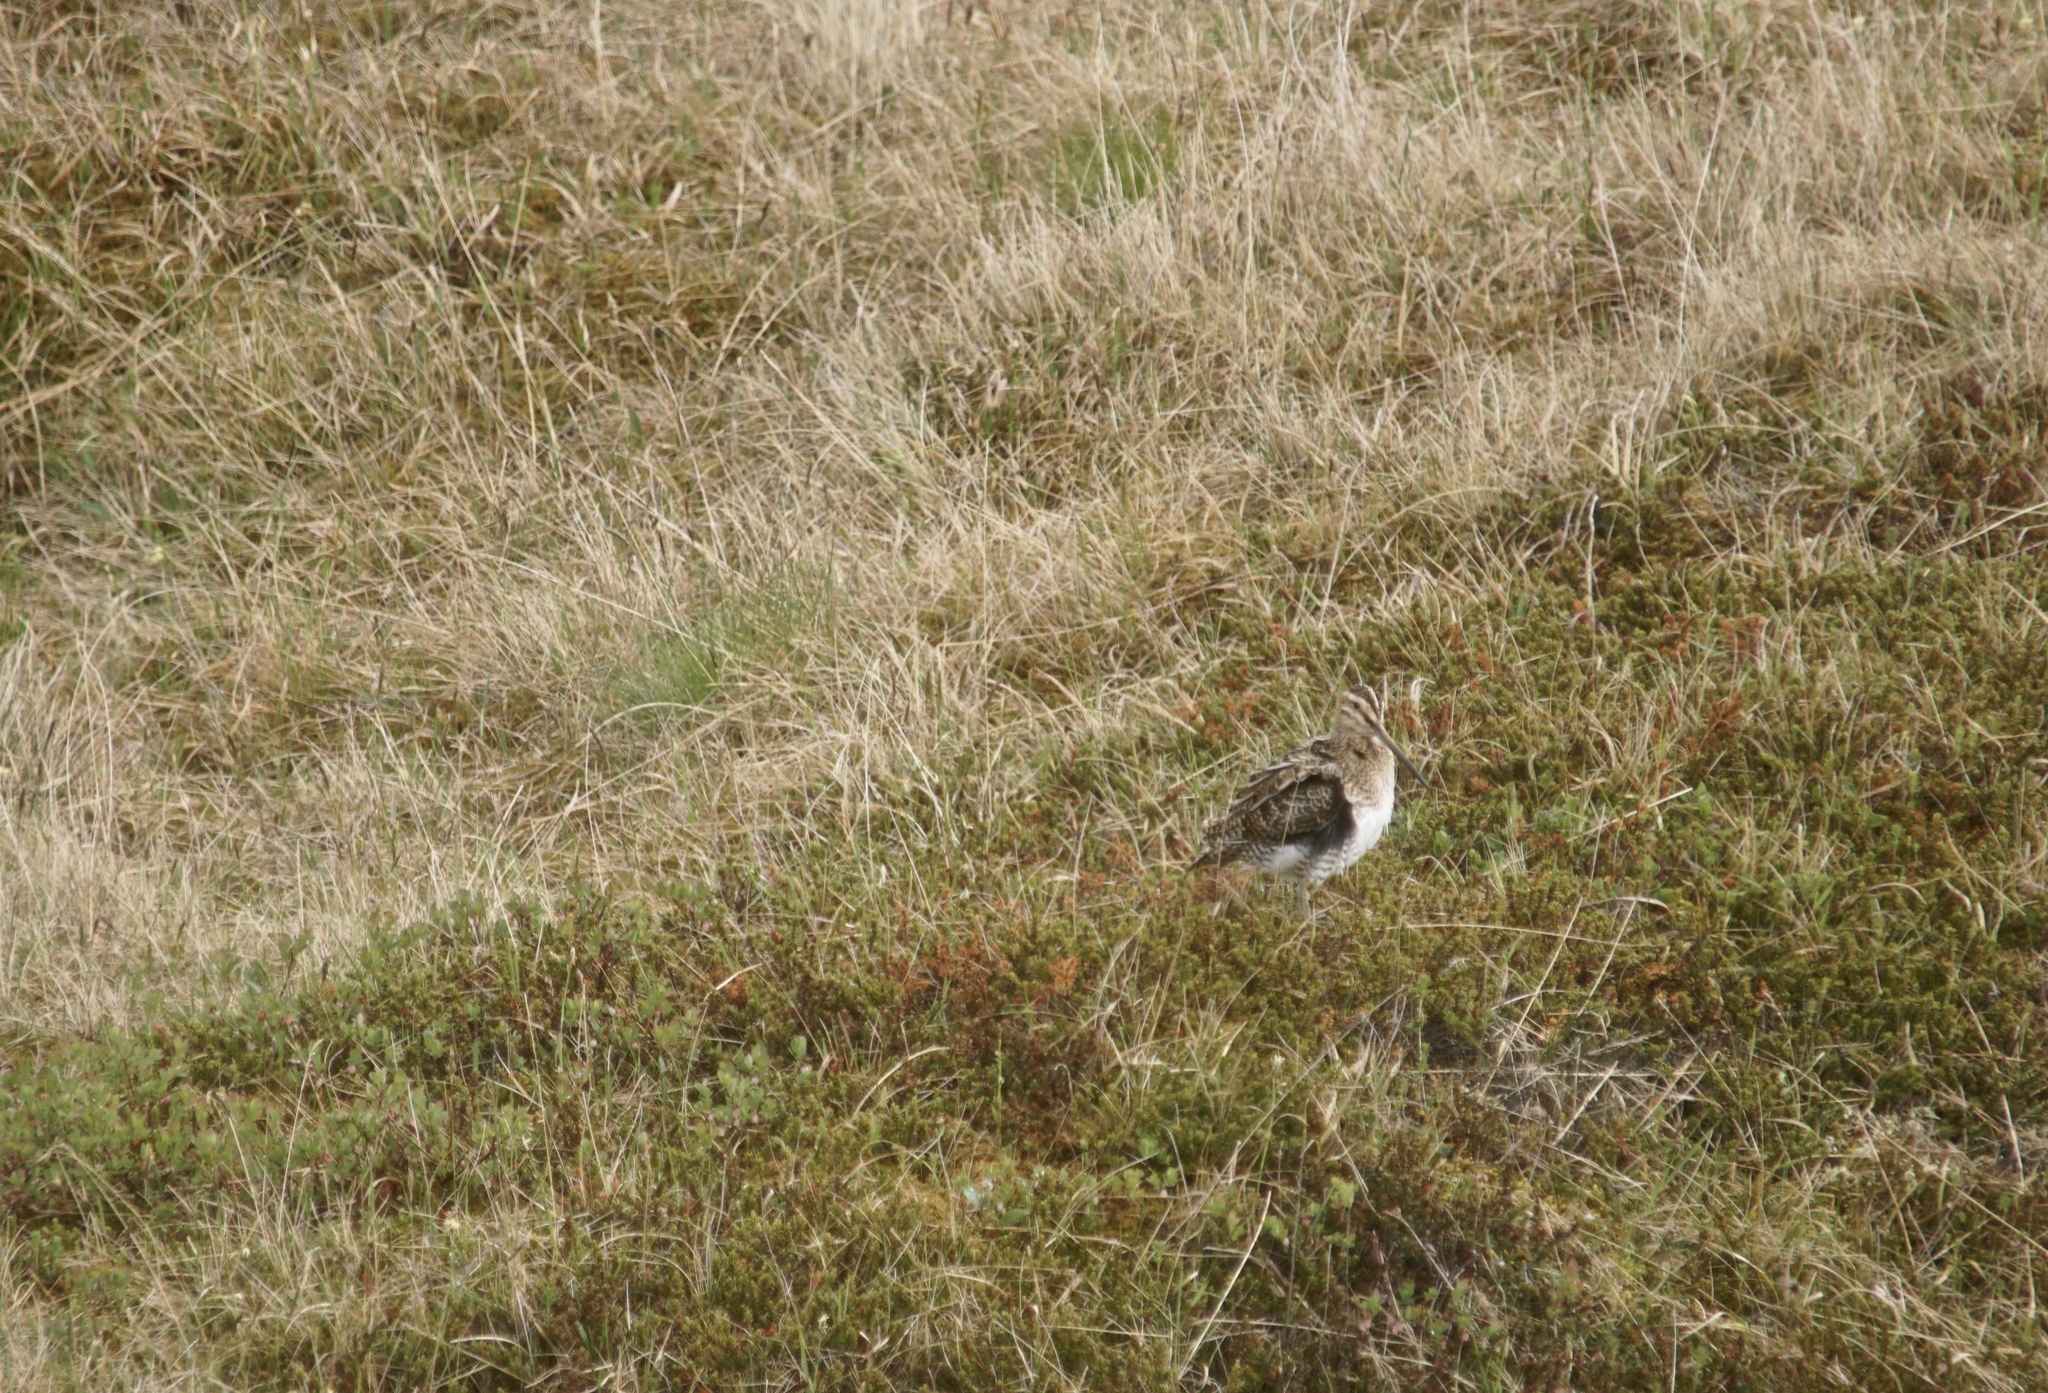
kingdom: Animalia
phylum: Chordata
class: Aves
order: Charadriiformes
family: Scolopacidae
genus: Gallinago
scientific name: Gallinago gallinago
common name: Common snipe
